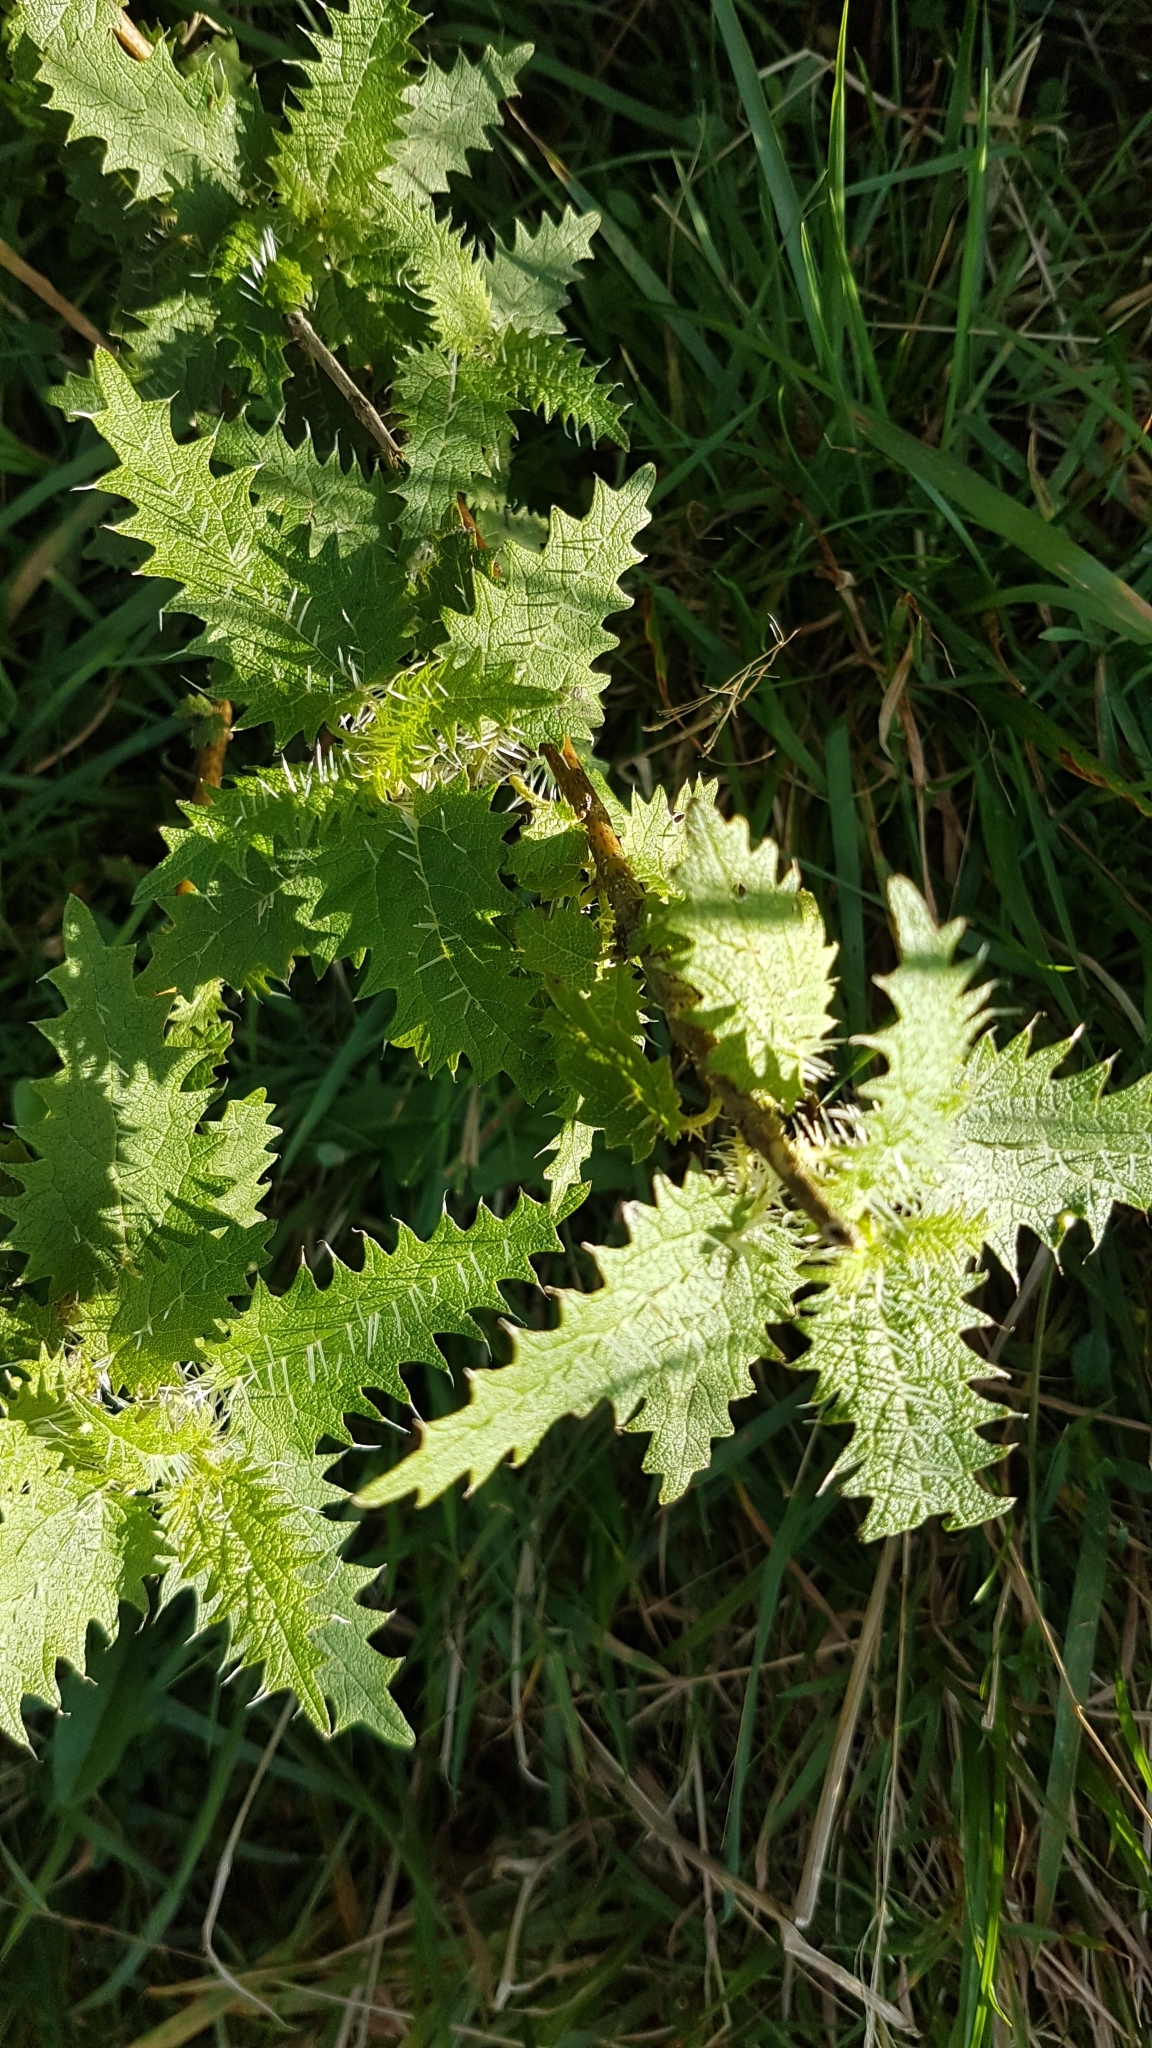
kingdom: Plantae
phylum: Tracheophyta
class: Magnoliopsida
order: Rosales
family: Urticaceae
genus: Urtica
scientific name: Urtica ferox
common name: Tree nettle
